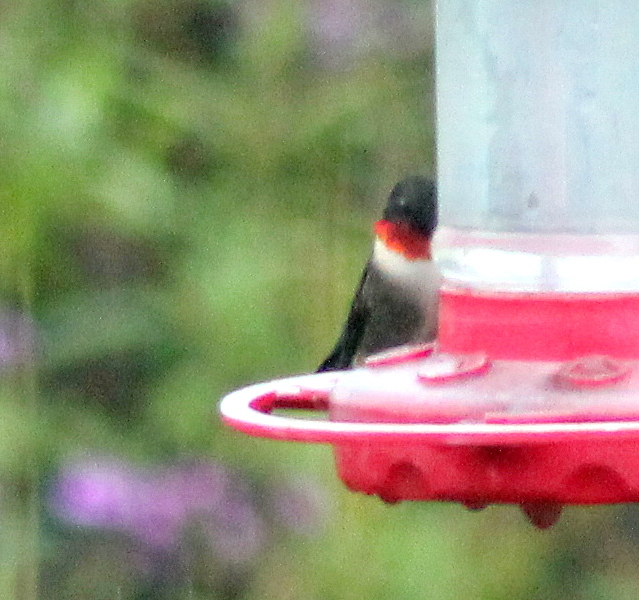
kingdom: Animalia
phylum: Chordata
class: Aves
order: Apodiformes
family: Trochilidae
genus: Archilochus
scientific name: Archilochus colubris
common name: Ruby-throated hummingbird
